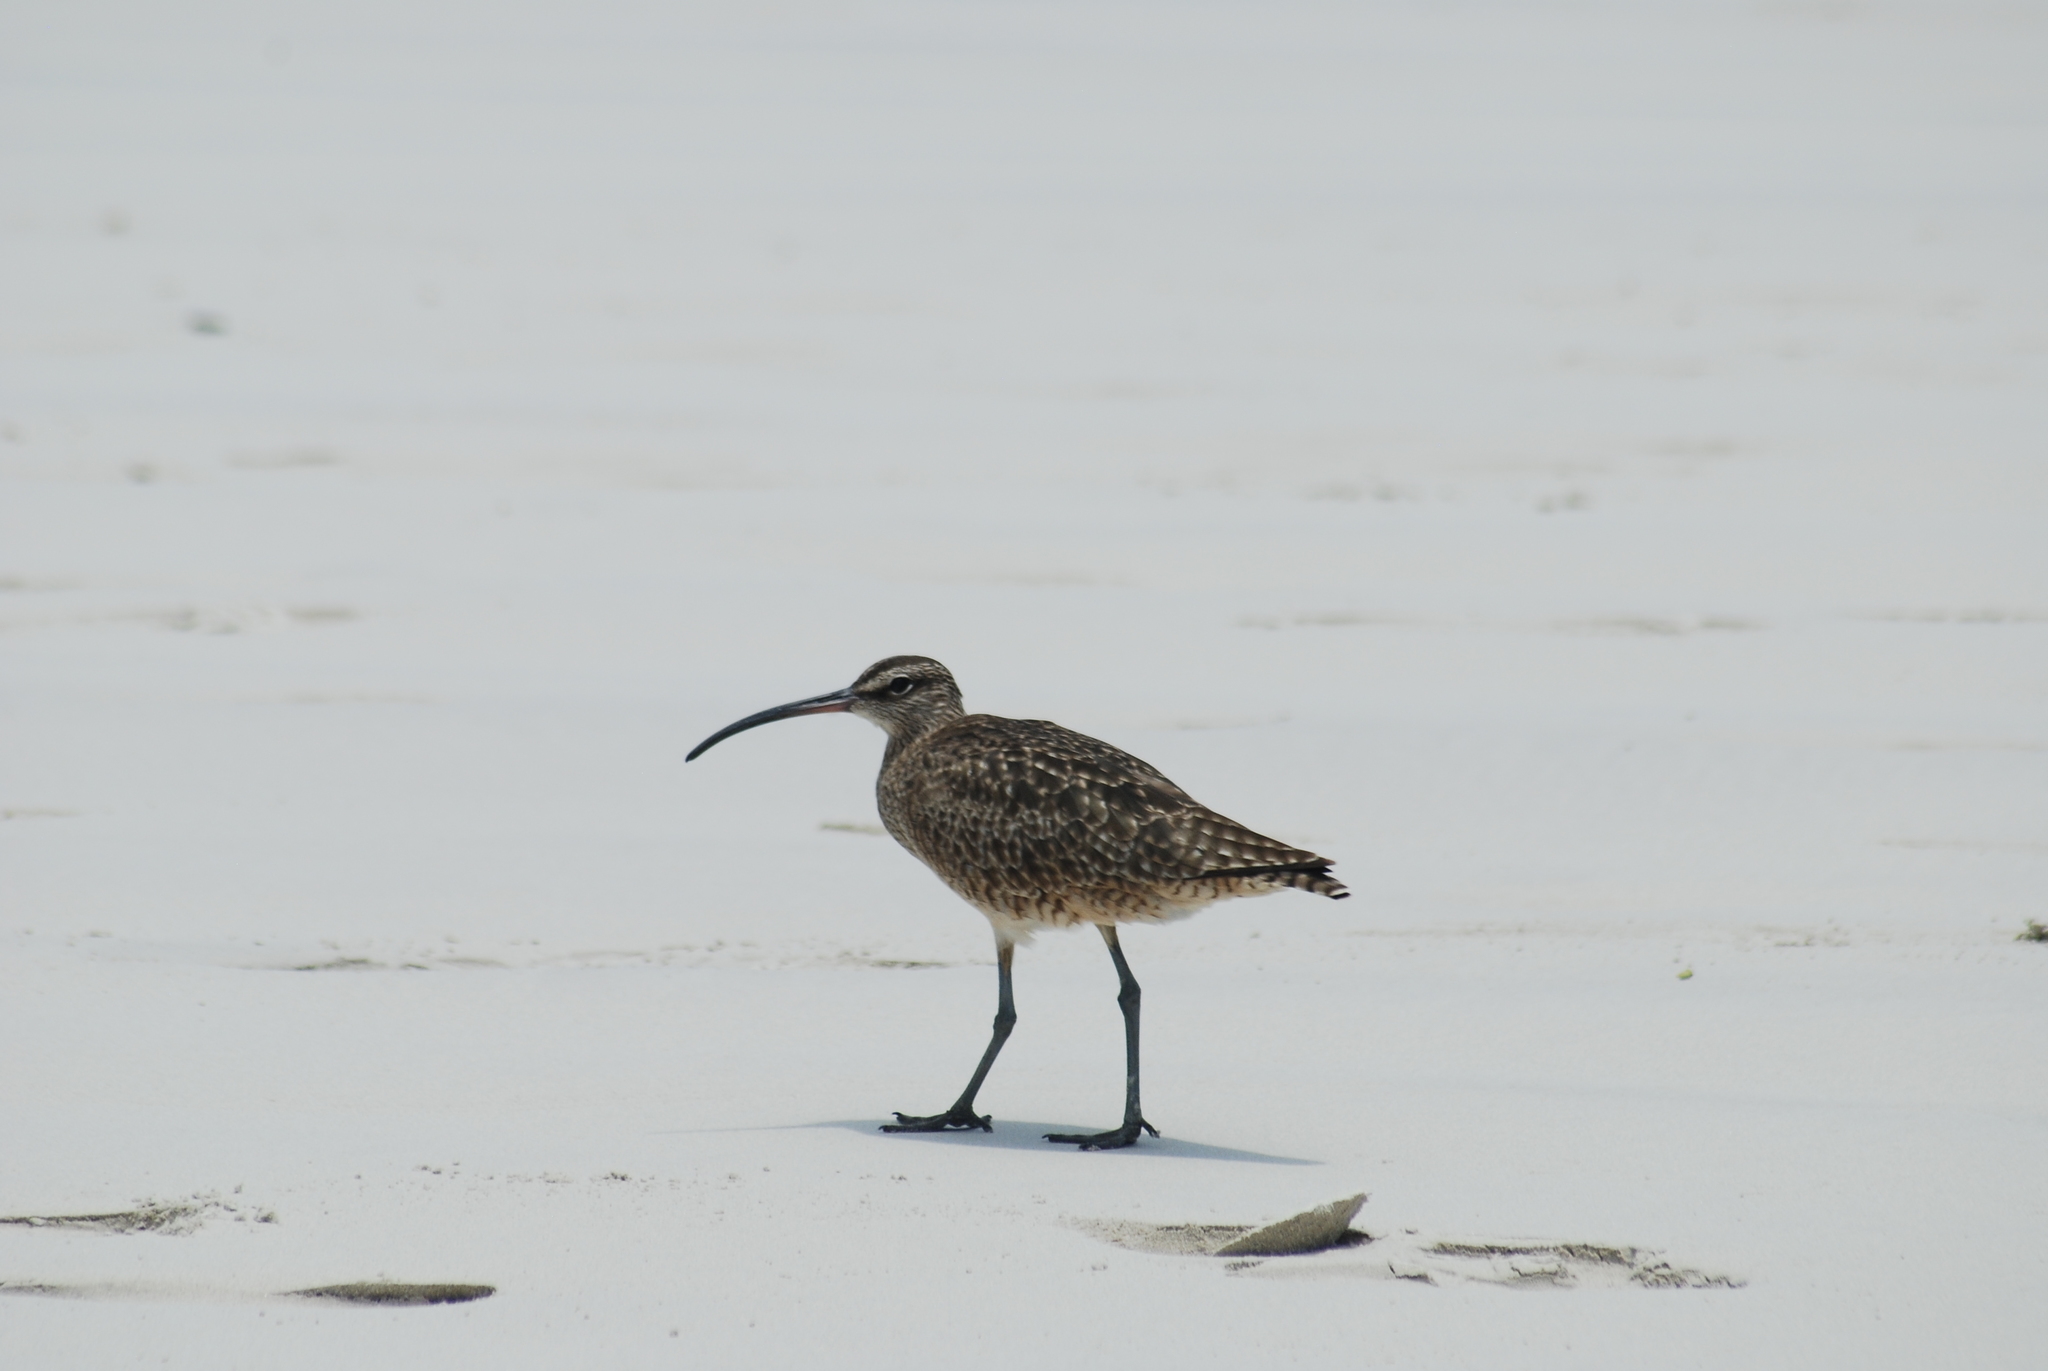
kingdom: Animalia
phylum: Chordata
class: Aves
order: Charadriiformes
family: Scolopacidae
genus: Numenius
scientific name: Numenius phaeopus
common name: Whimbrel
